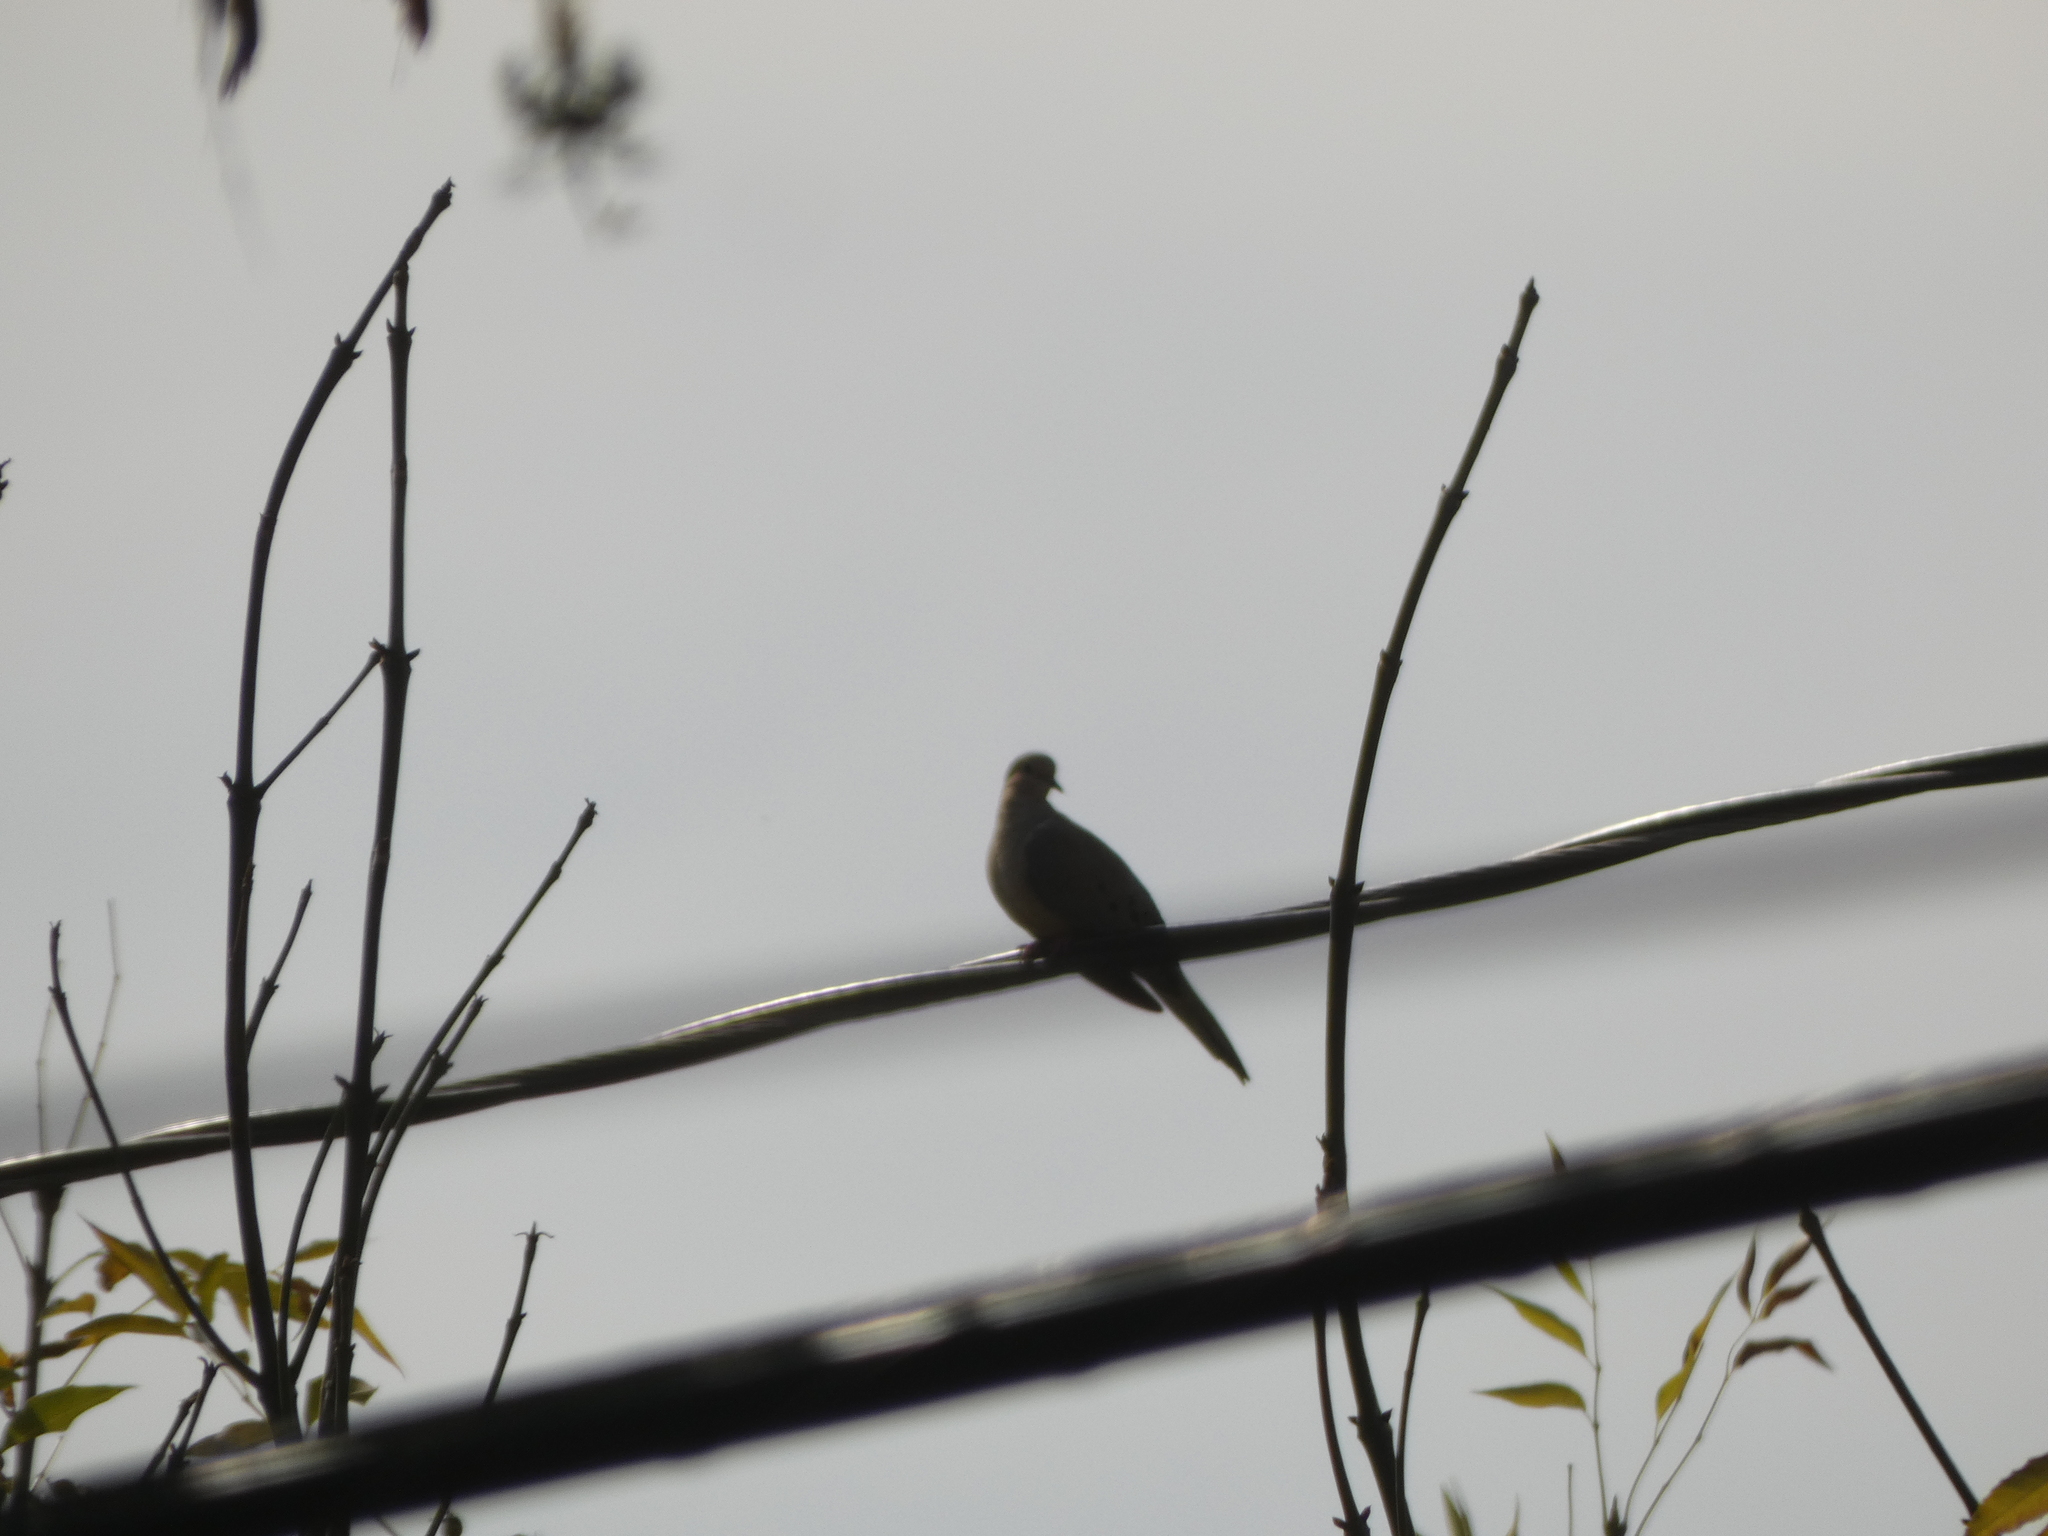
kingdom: Animalia
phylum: Chordata
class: Aves
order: Columbiformes
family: Columbidae
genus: Zenaida
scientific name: Zenaida macroura
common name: Mourning dove
